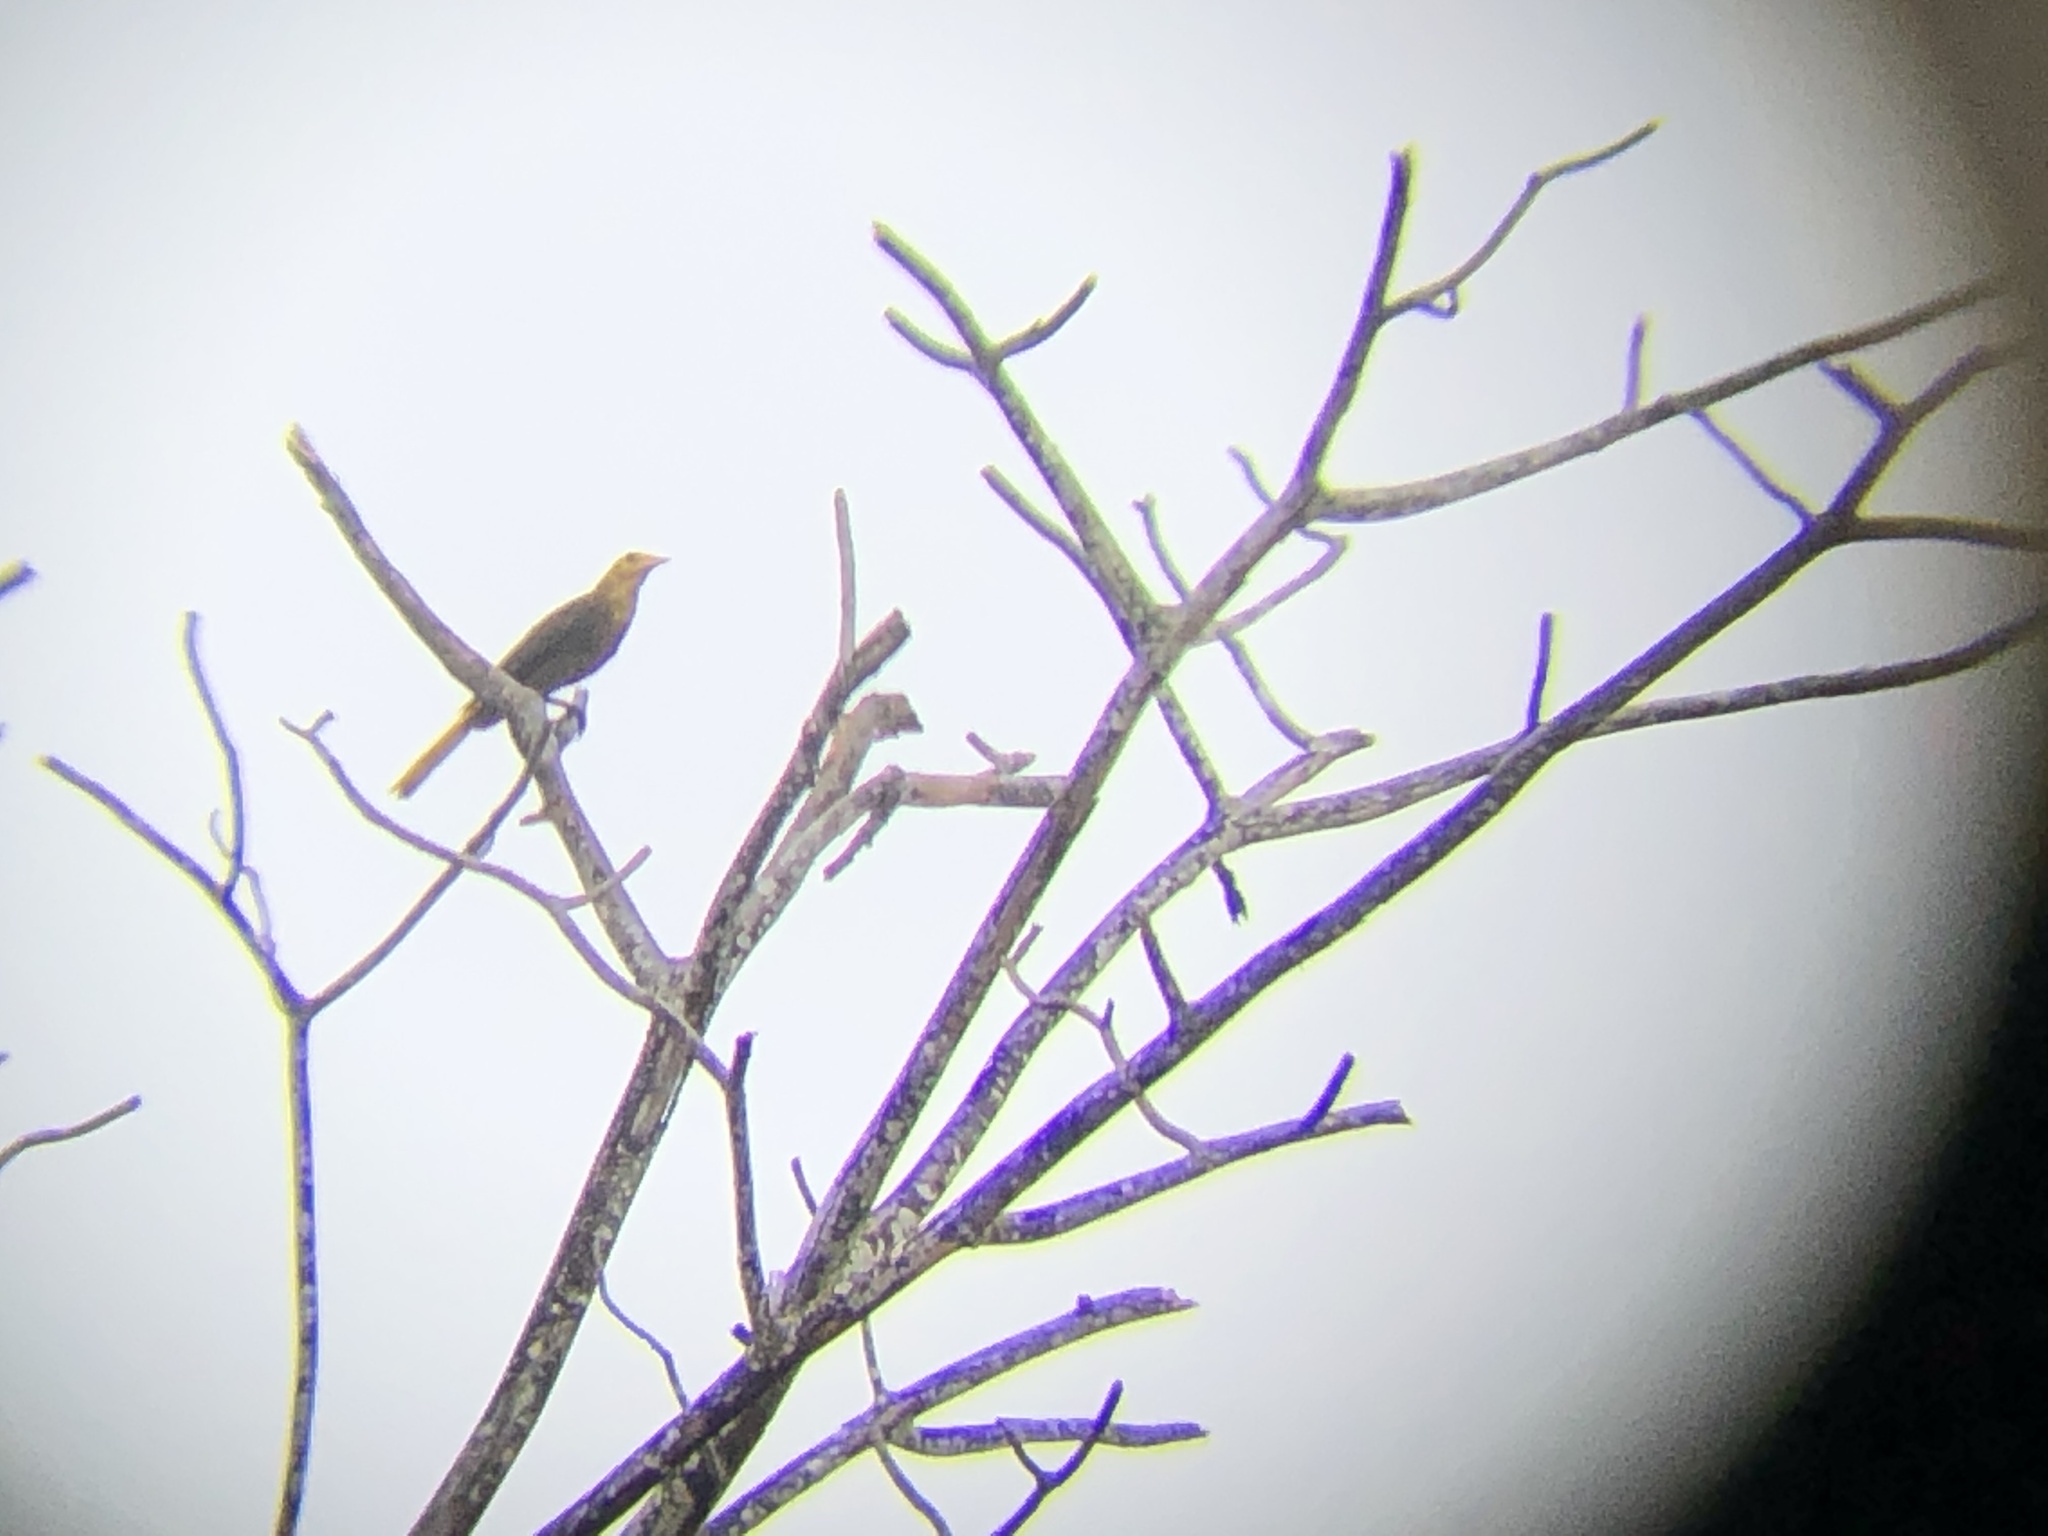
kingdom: Animalia
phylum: Chordata
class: Aves
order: Passeriformes
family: Icteridae
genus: Psarocolius
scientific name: Psarocolius angustifrons
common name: Russet-backed oropendola
